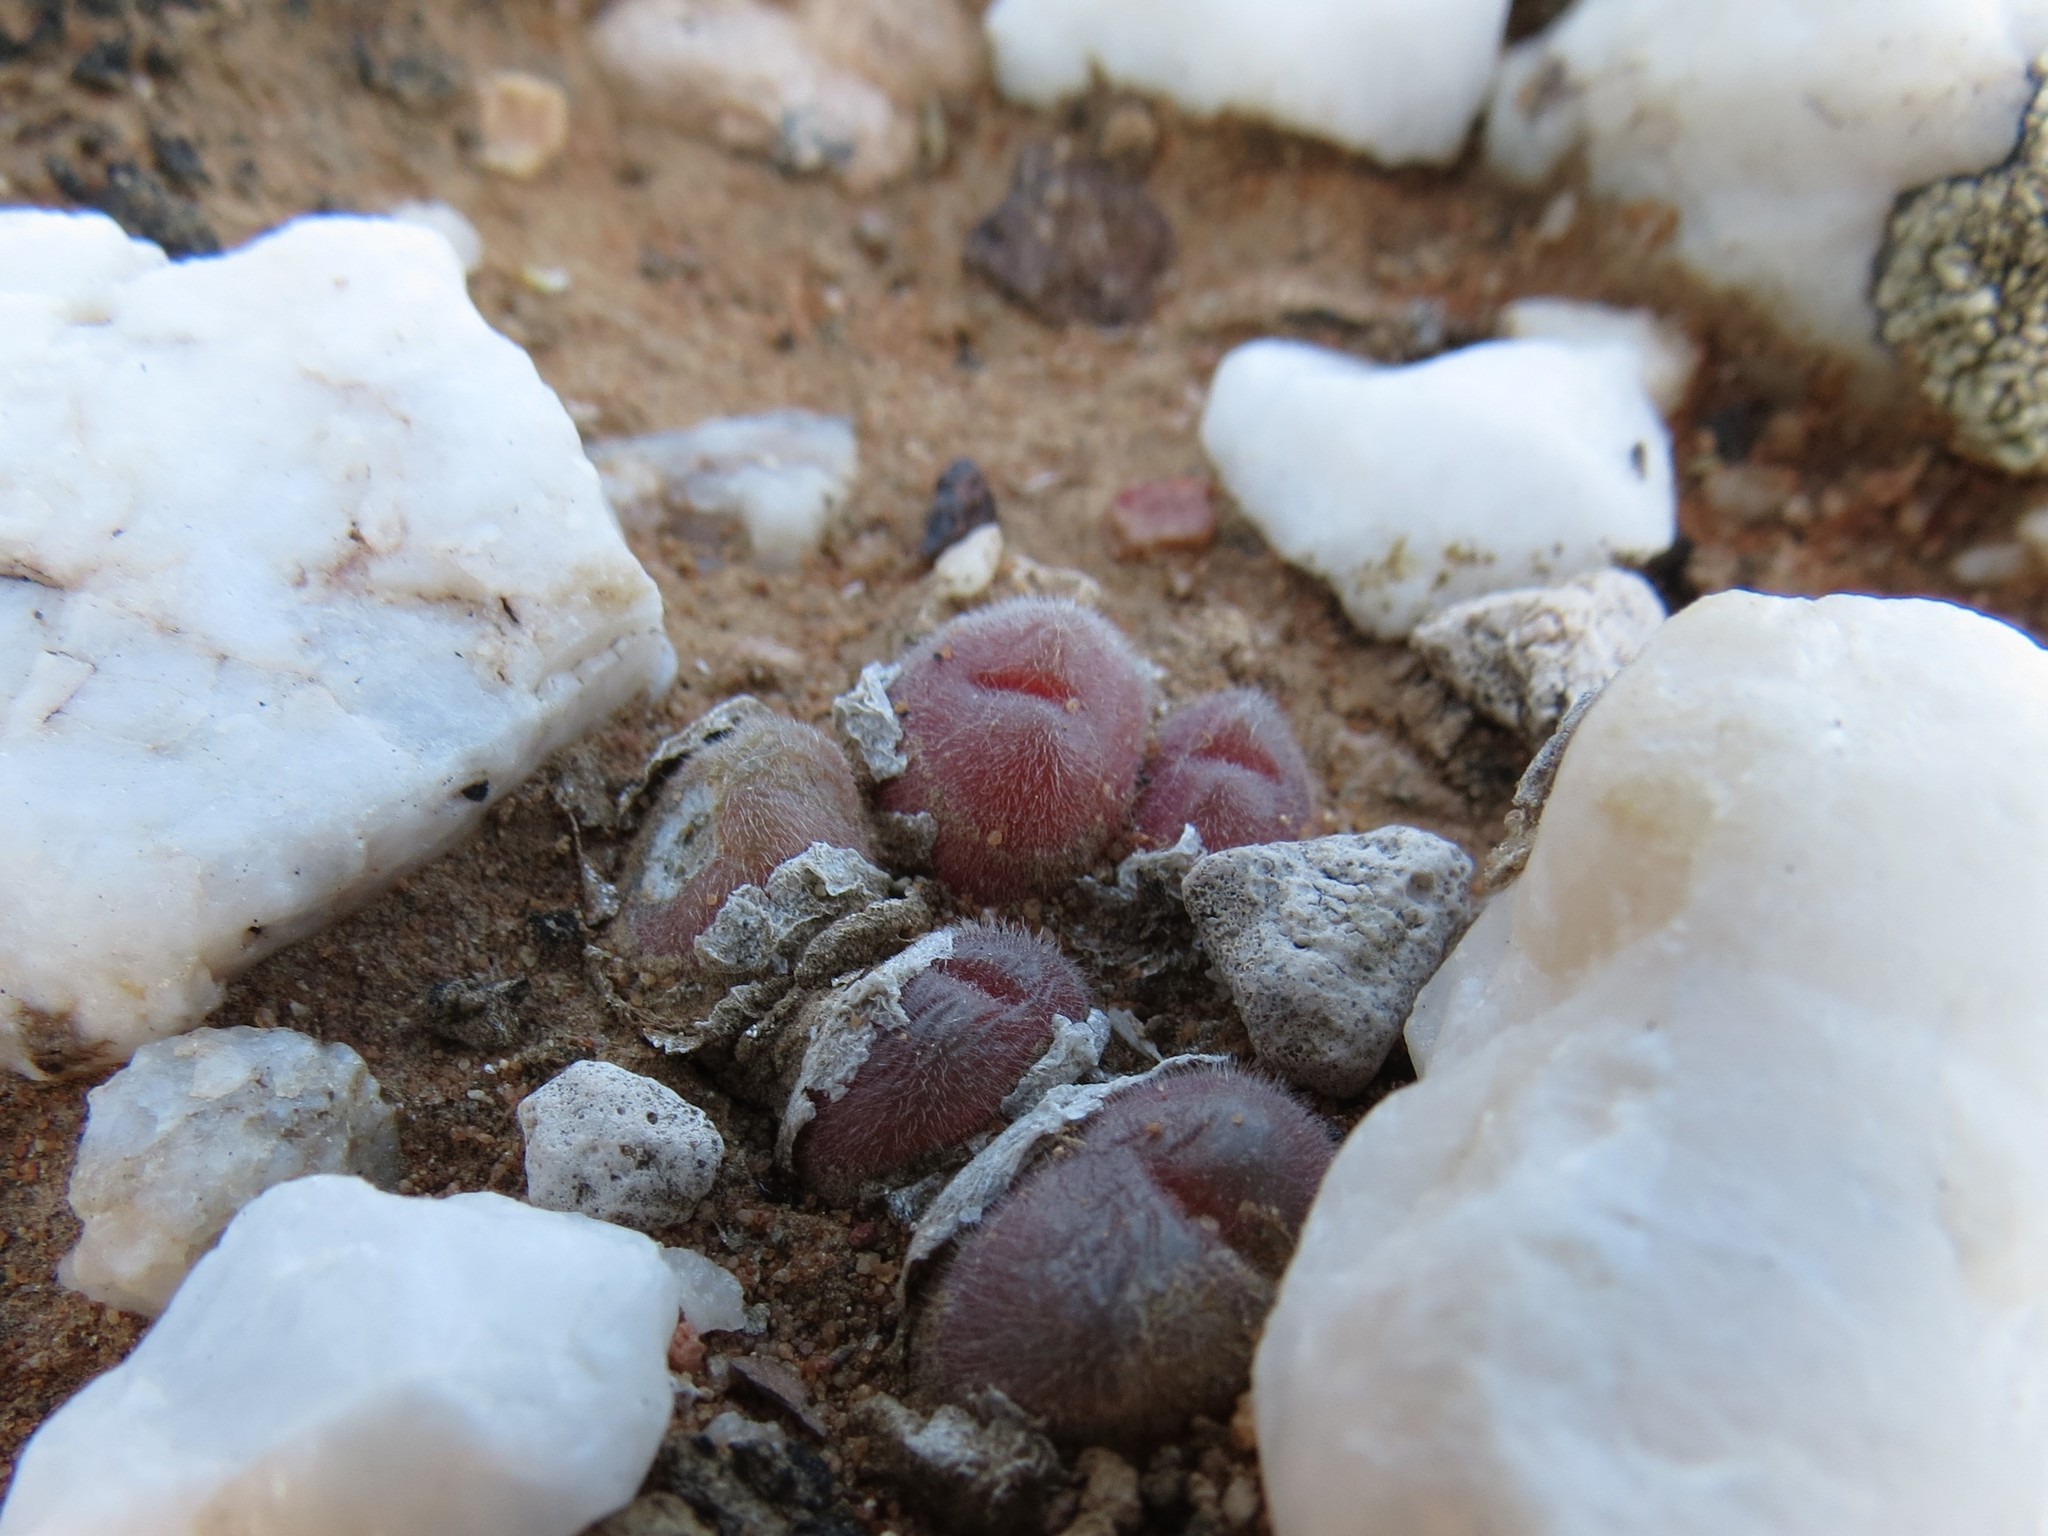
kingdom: Plantae
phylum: Tracheophyta
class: Magnoliopsida
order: Caryophyllales
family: Aizoaceae
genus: Gibbaeum
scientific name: Gibbaeum pilosulum
